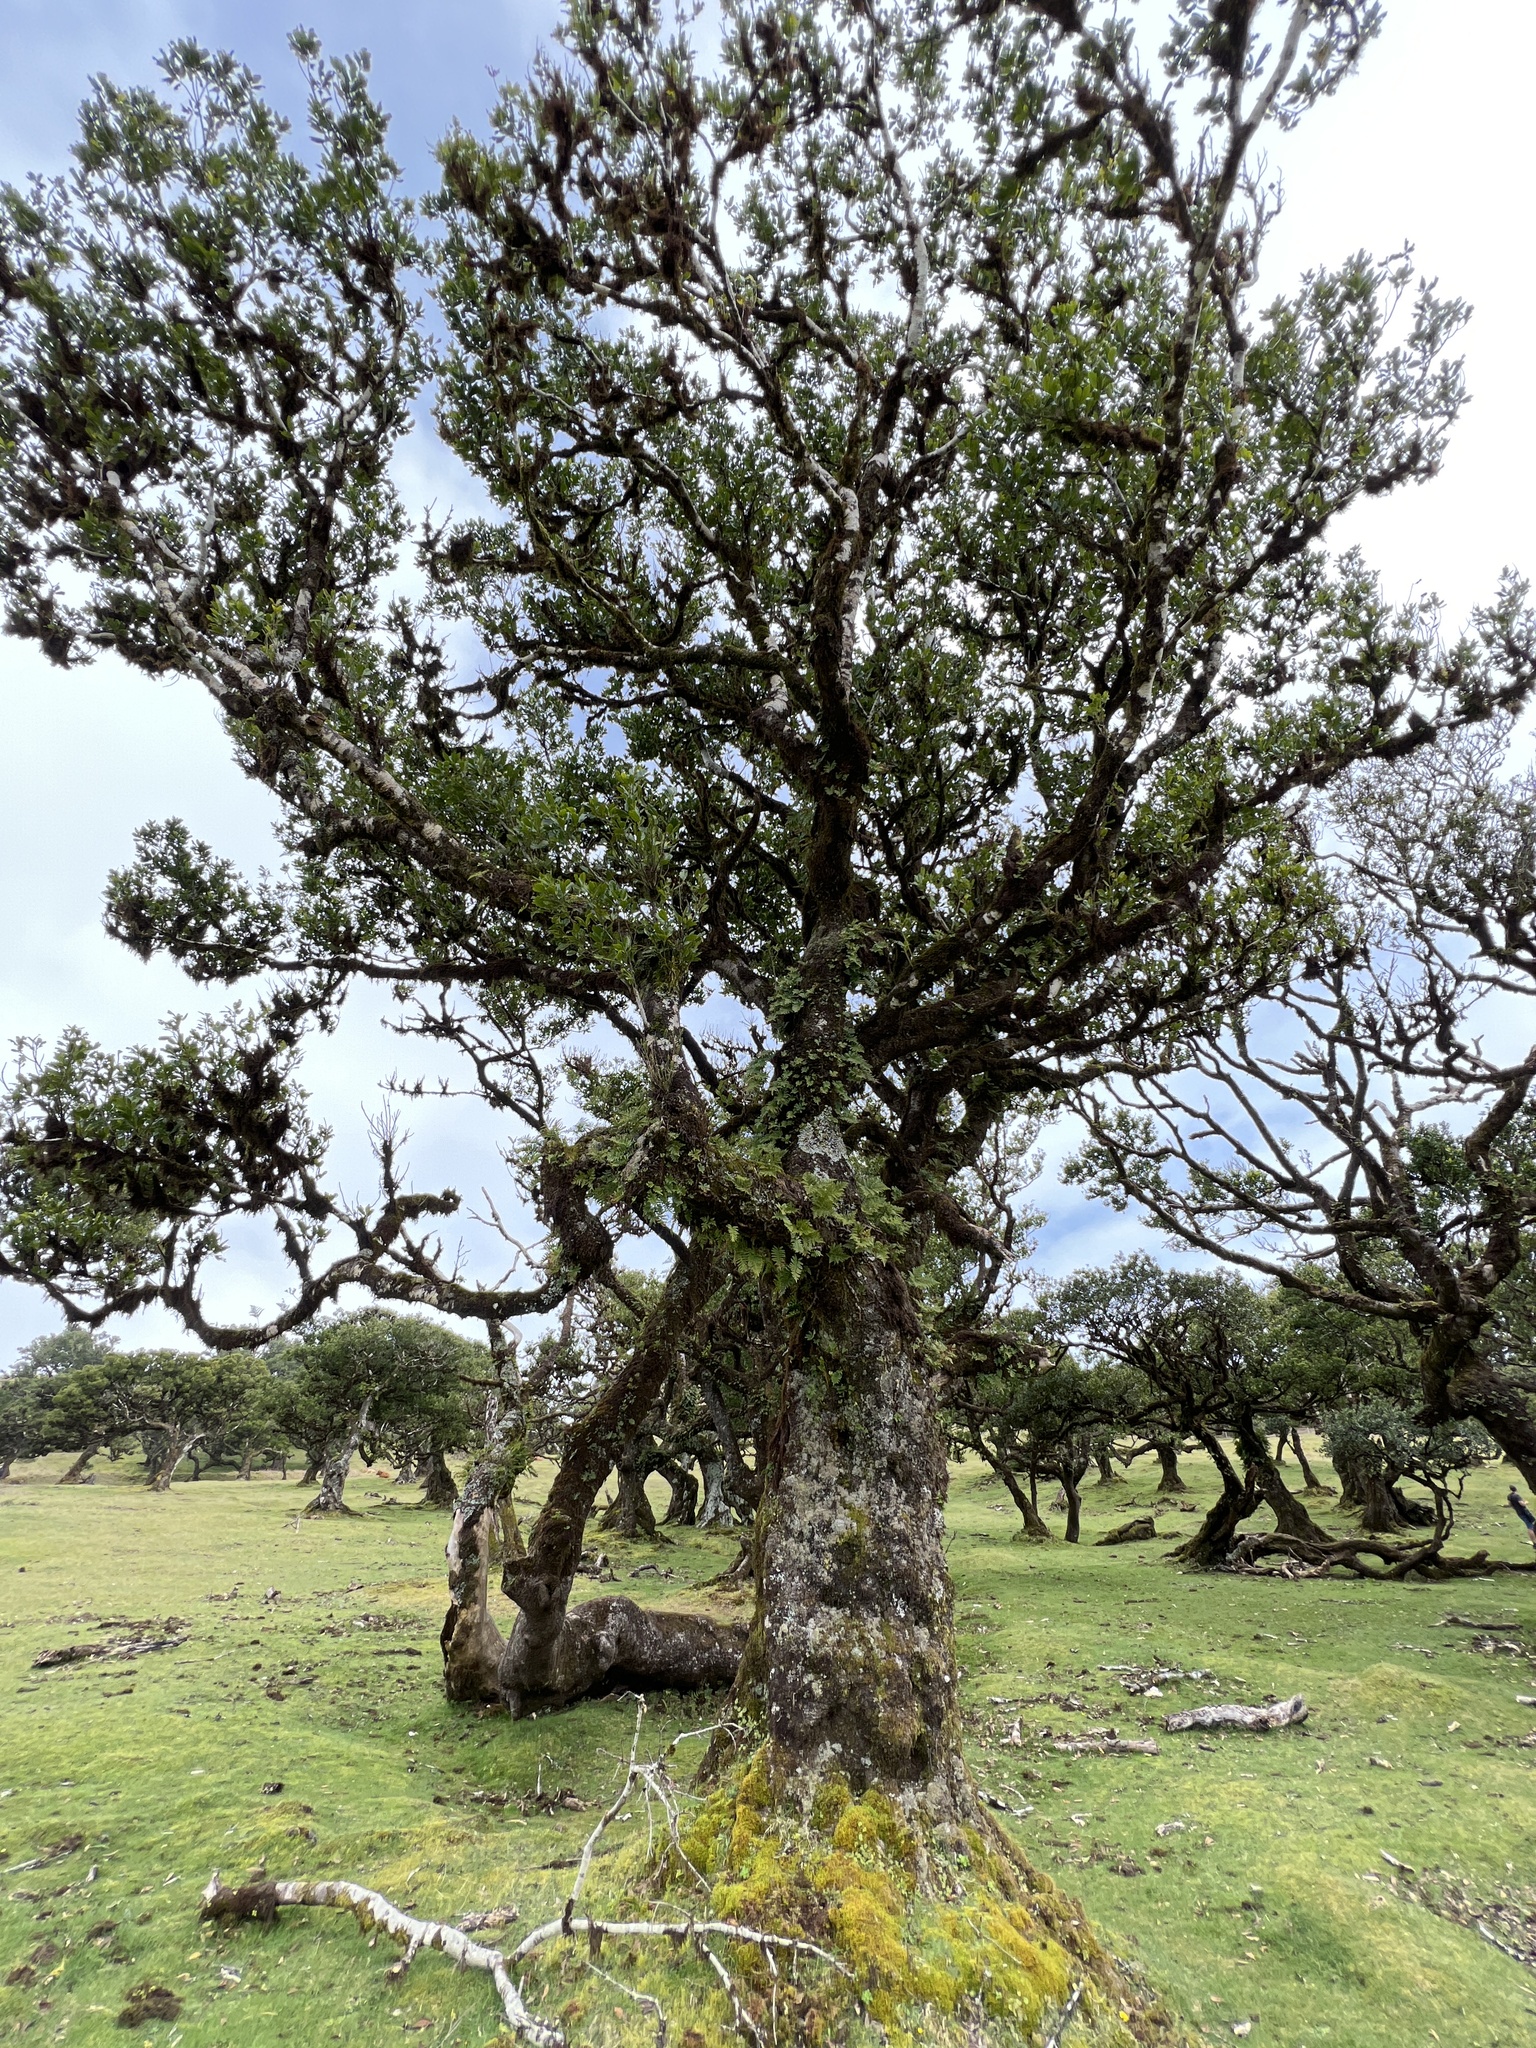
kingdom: Plantae
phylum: Tracheophyta
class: Magnoliopsida
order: Laurales
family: Lauraceae
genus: Mespilodaphne
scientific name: Mespilodaphne foetens
